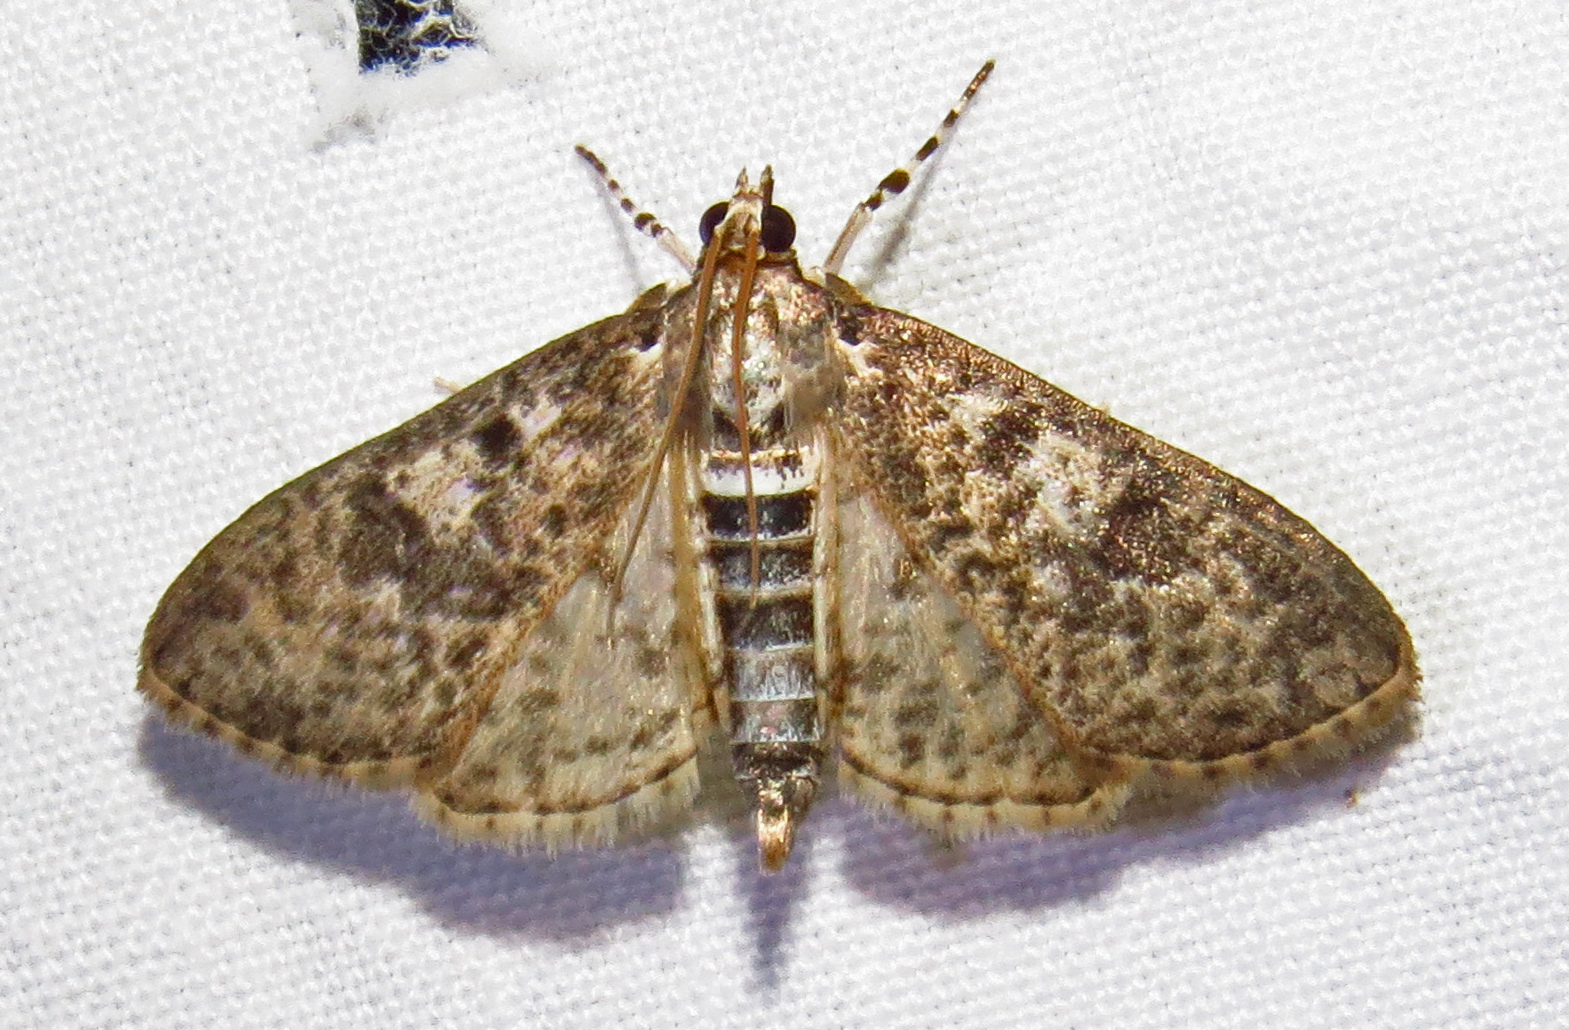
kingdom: Animalia
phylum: Arthropoda
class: Insecta
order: Lepidoptera
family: Crambidae
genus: Palpita
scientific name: Palpita magniferalis
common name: Splendid palpita moth
